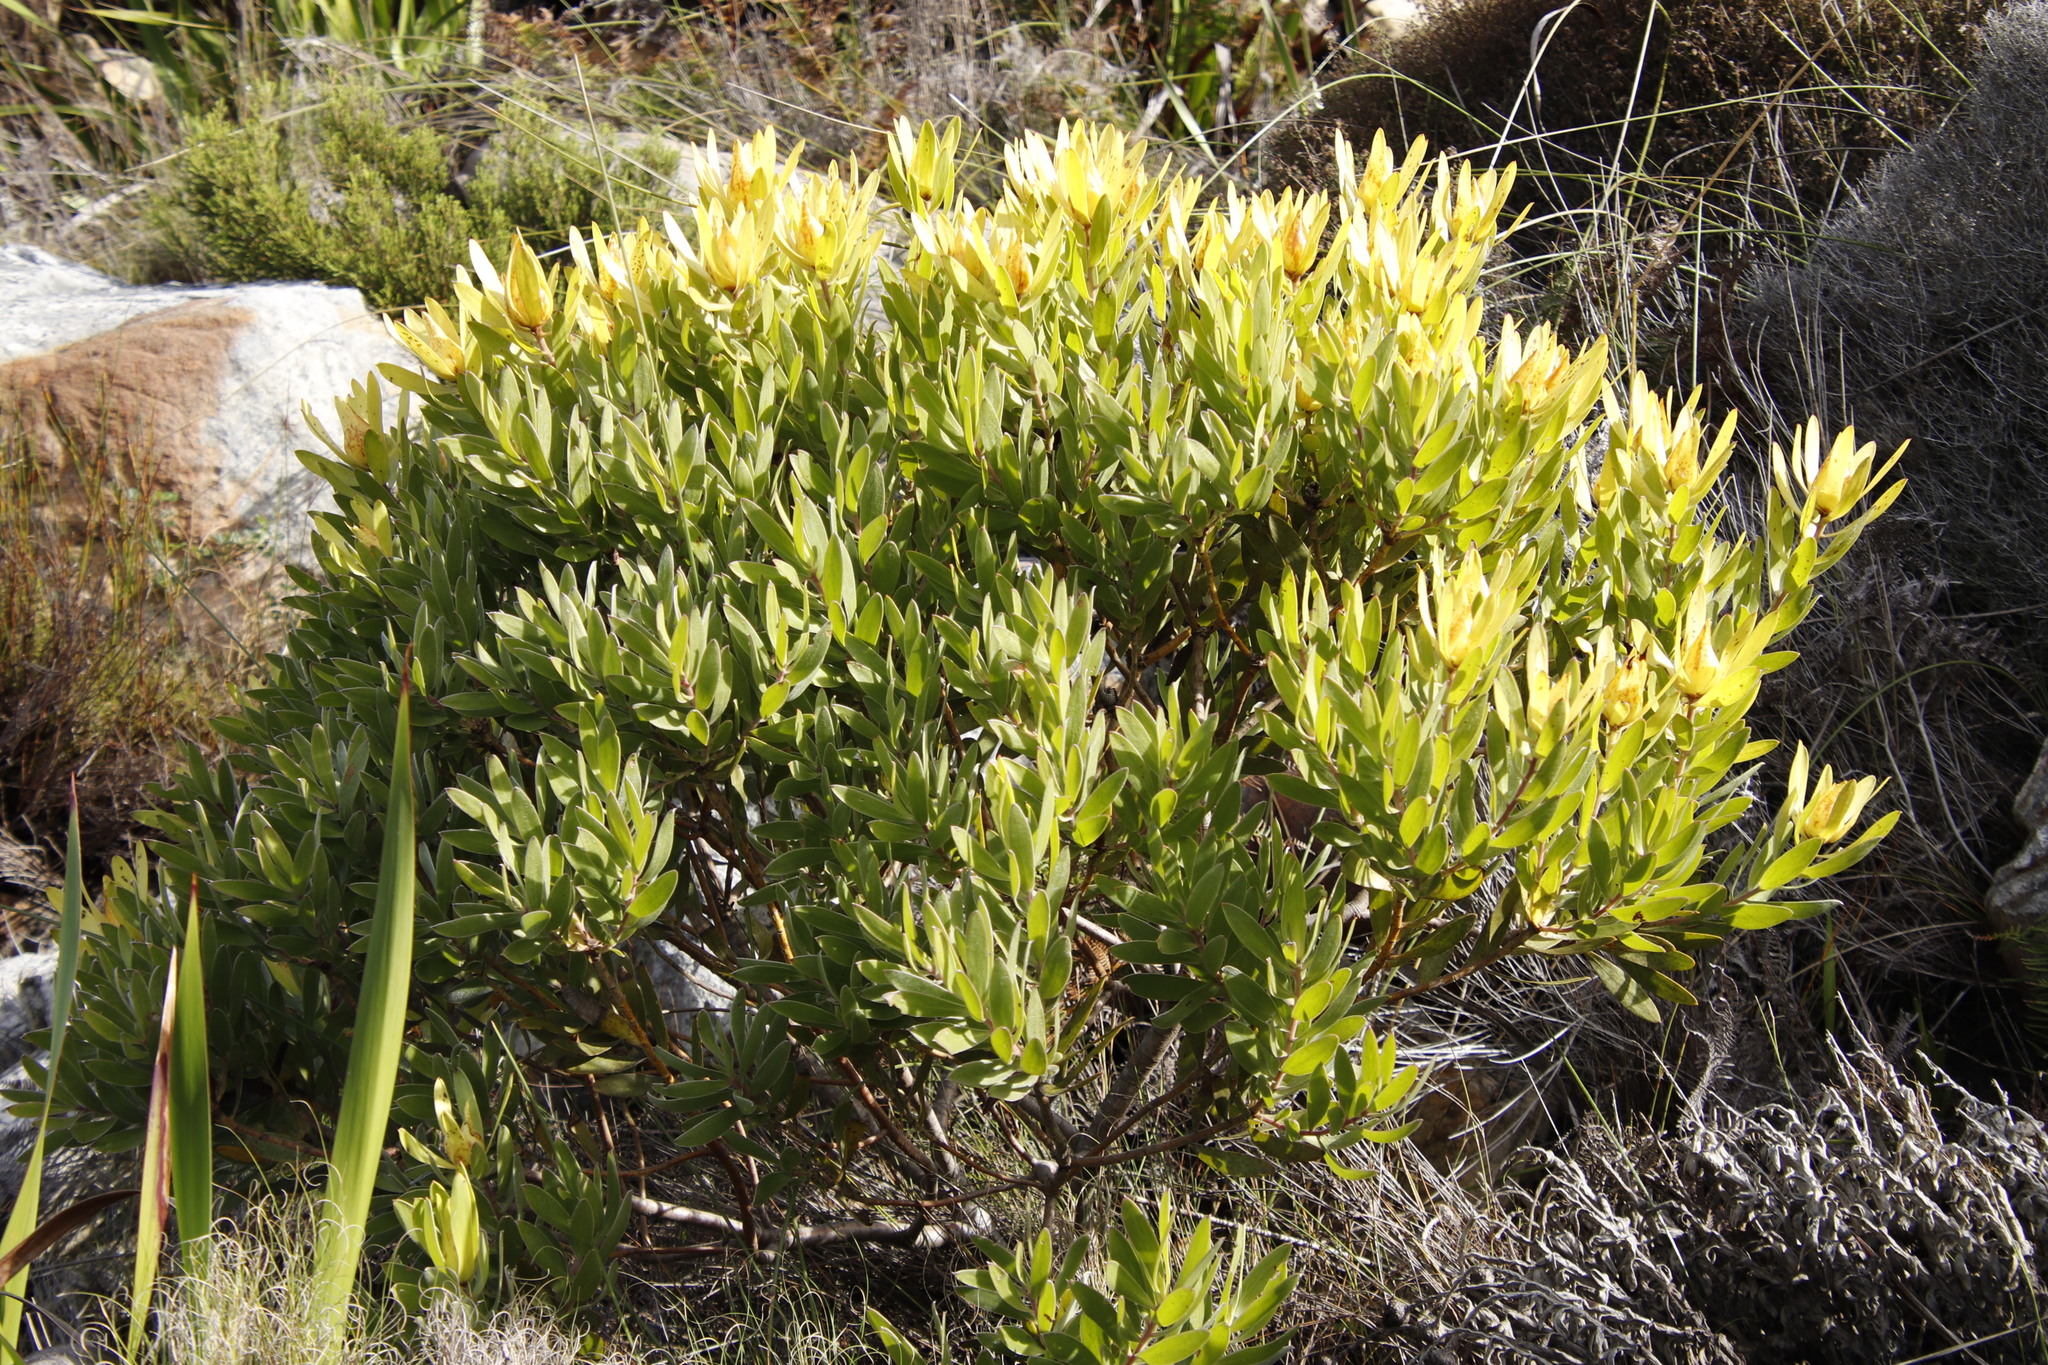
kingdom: Plantae
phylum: Tracheophyta
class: Magnoliopsida
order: Proteales
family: Proteaceae
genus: Leucadendron
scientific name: Leucadendron laureolum
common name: Golden sunshinebush
